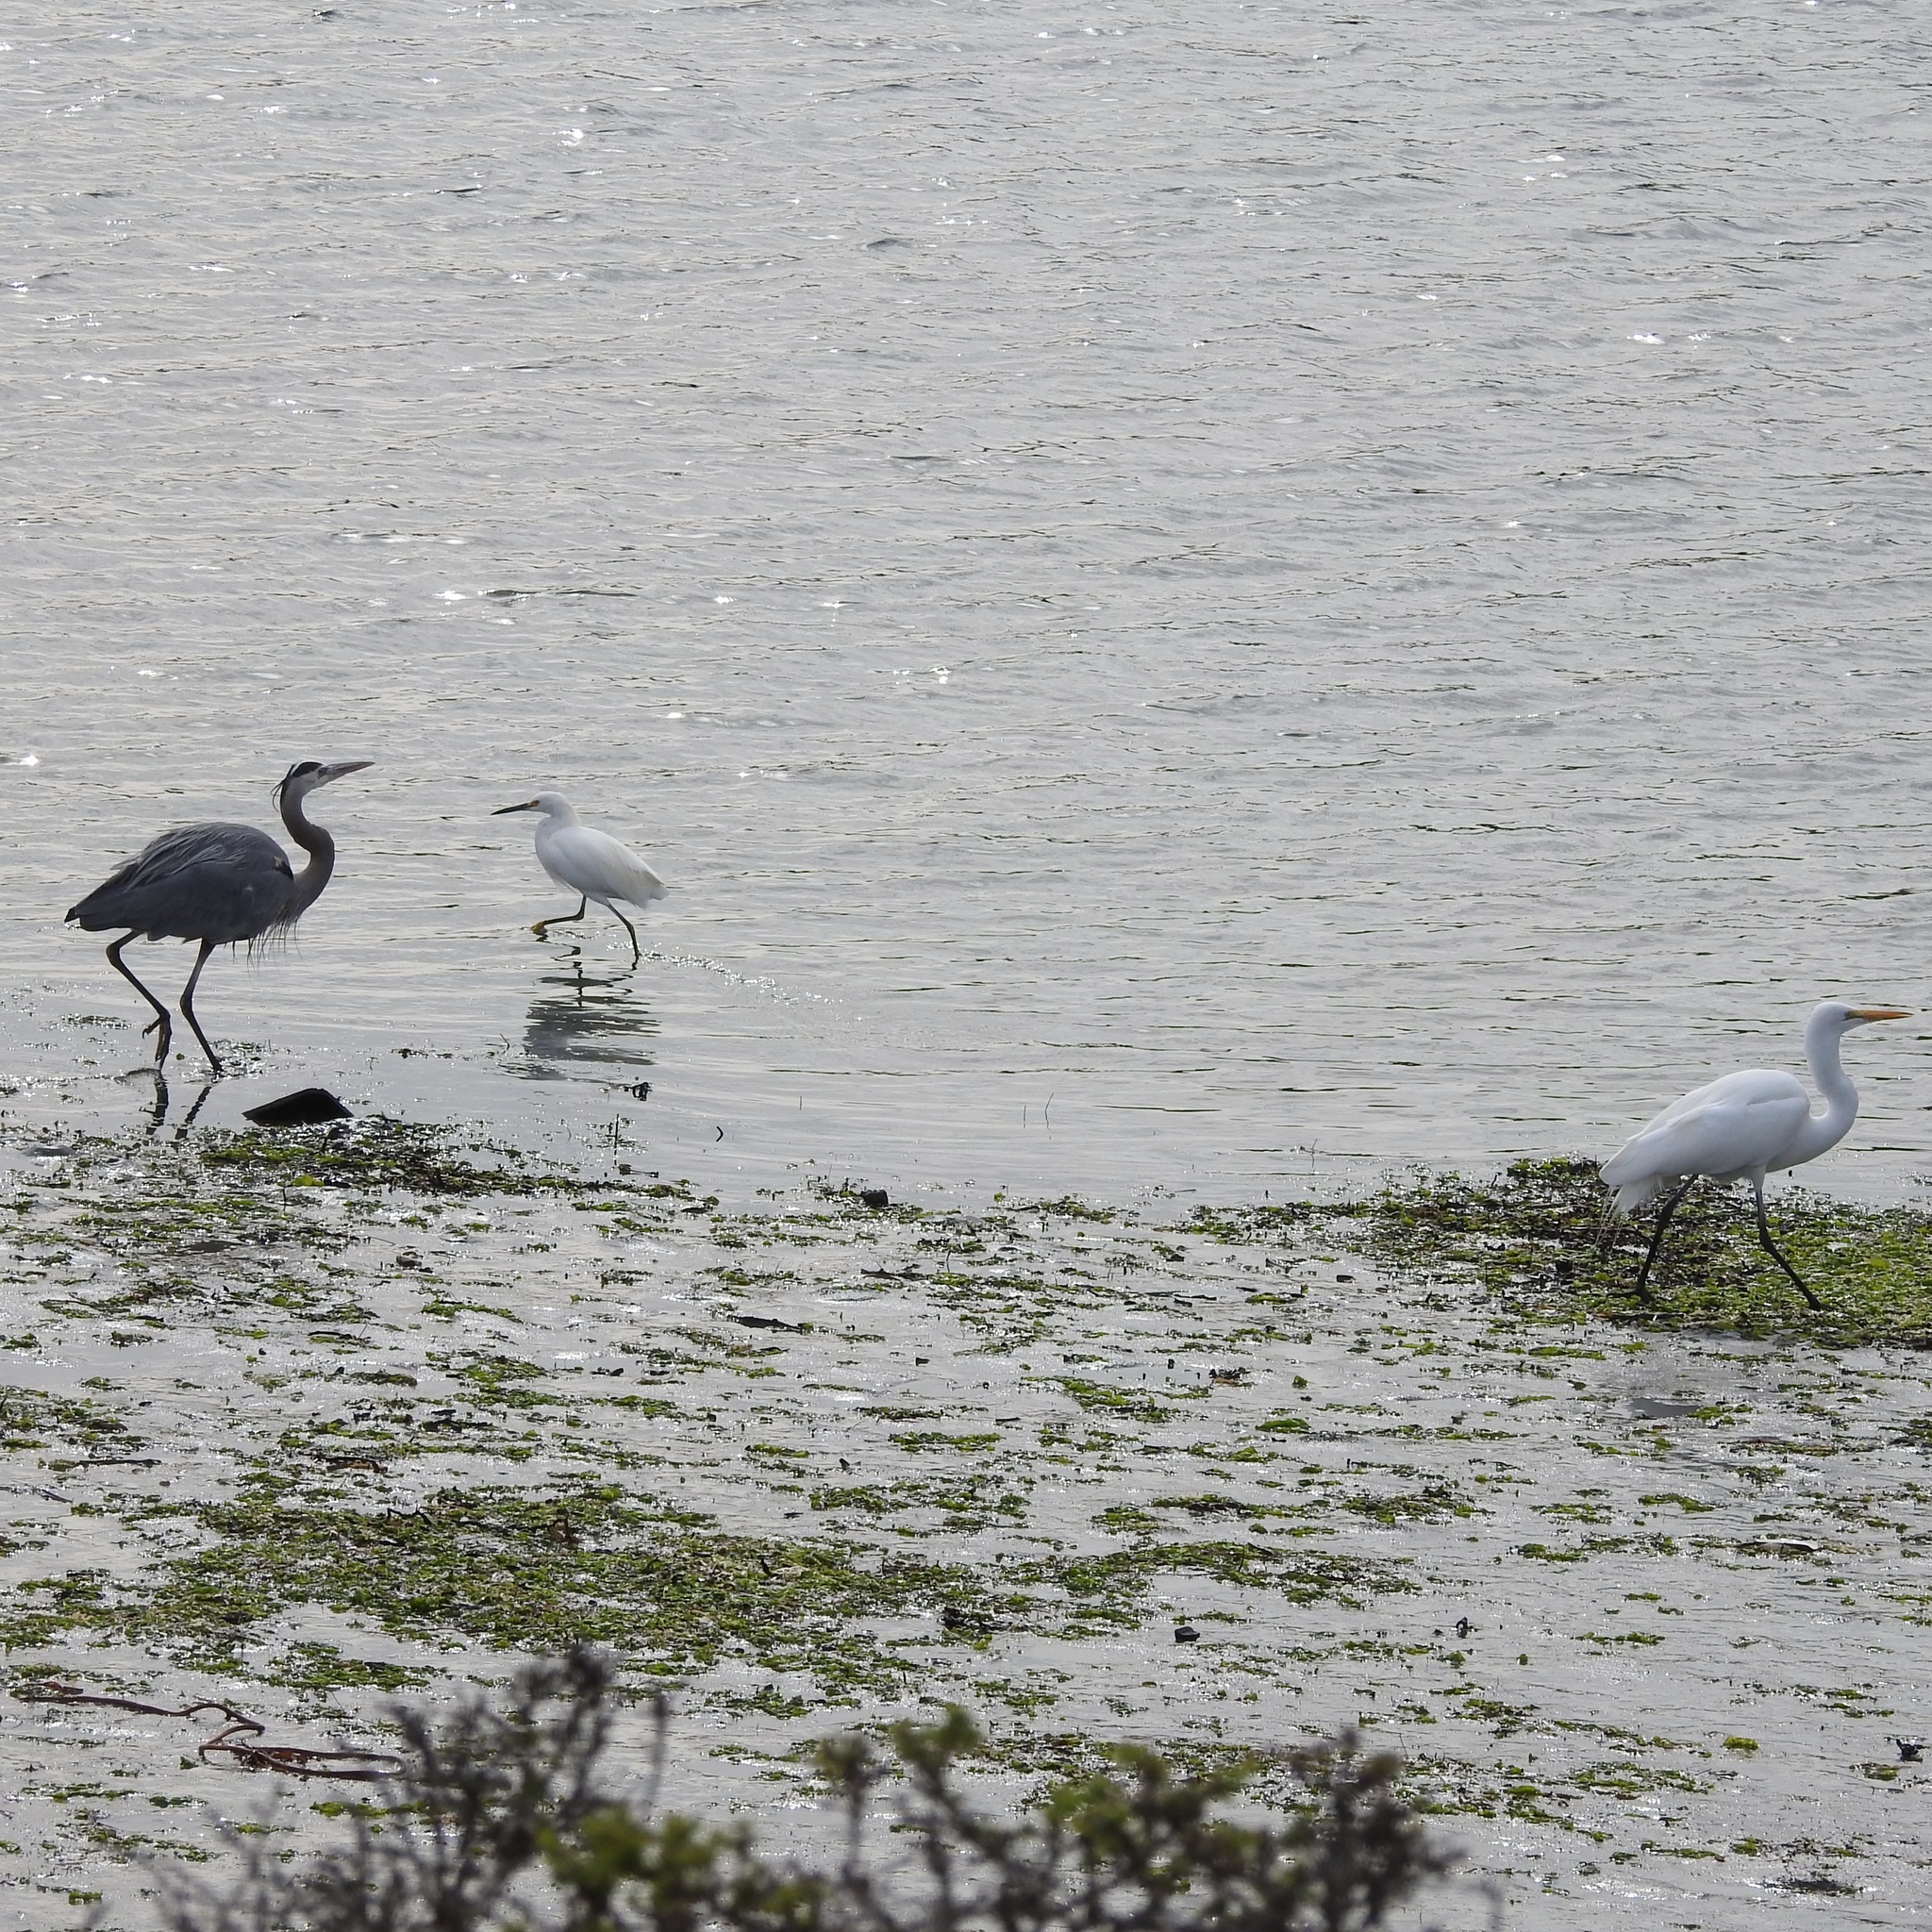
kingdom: Animalia
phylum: Chordata
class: Aves
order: Pelecaniformes
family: Ardeidae
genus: Ardea
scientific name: Ardea herodias
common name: Great blue heron
